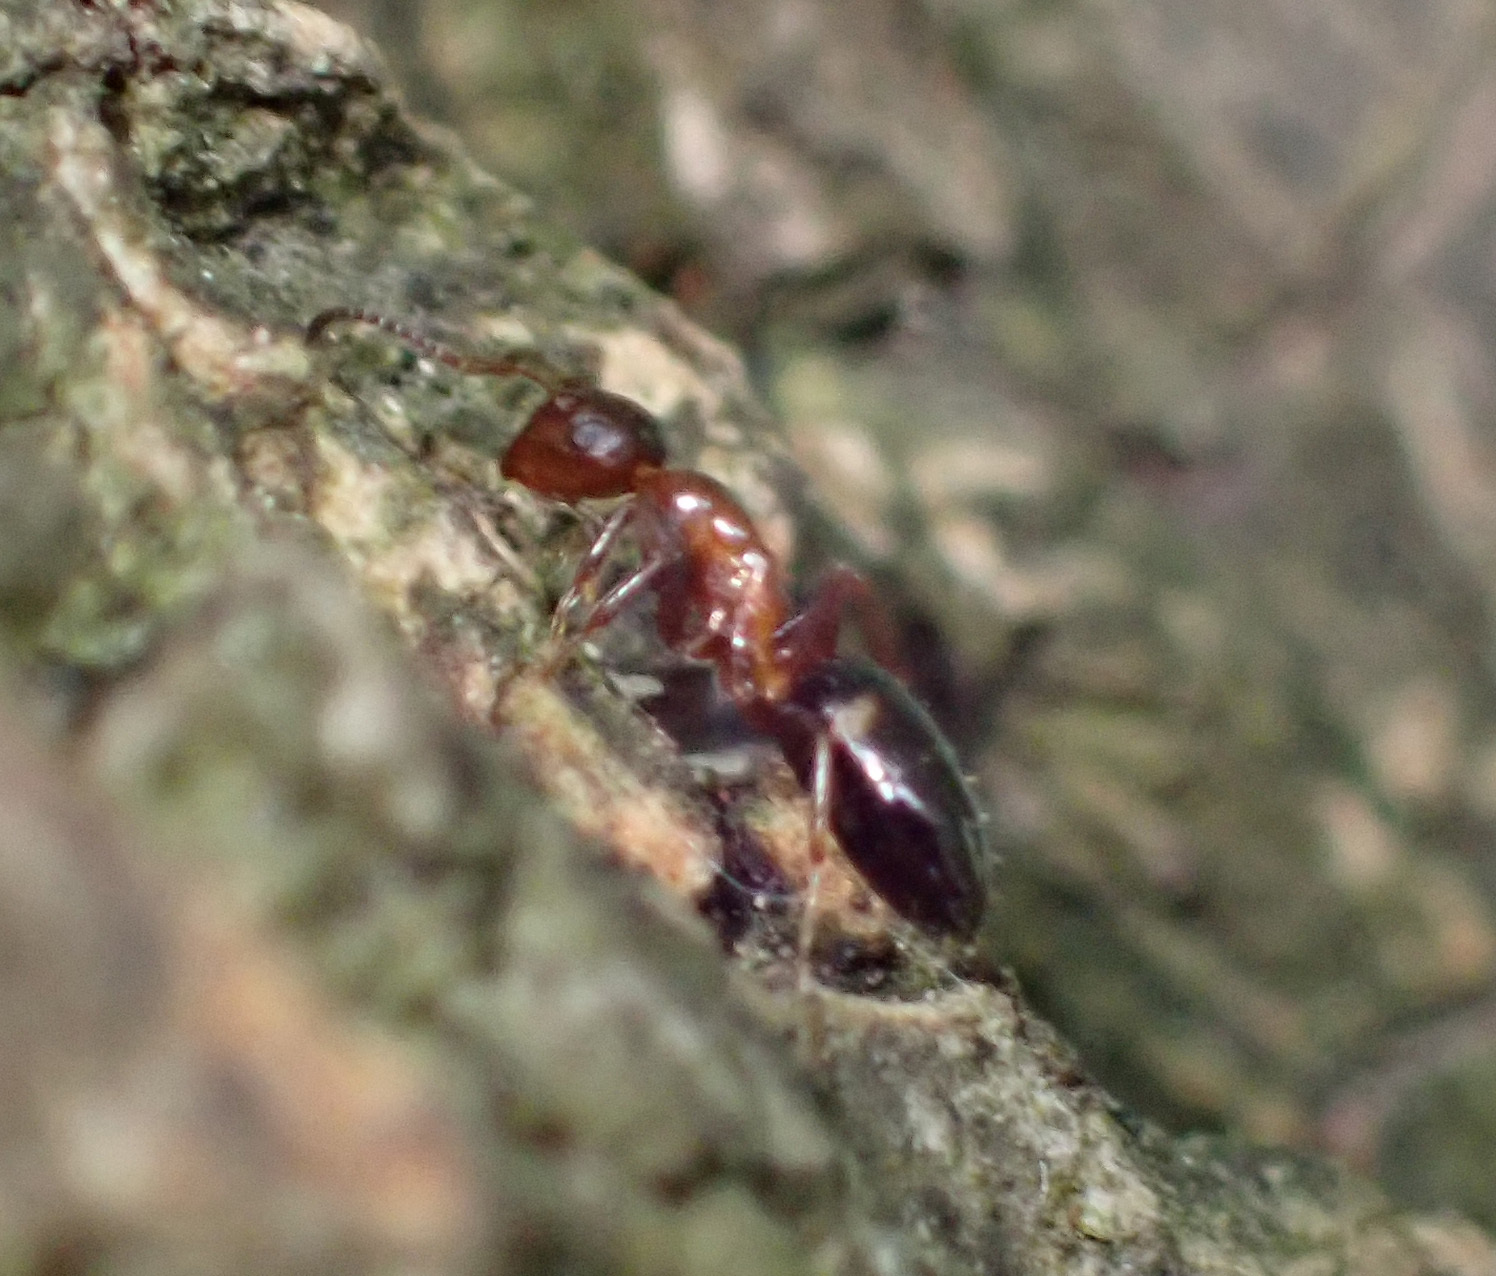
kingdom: Animalia
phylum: Arthropoda
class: Insecta
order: Hymenoptera
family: Formicidae
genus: Camponotus
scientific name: Camponotus truncatus
